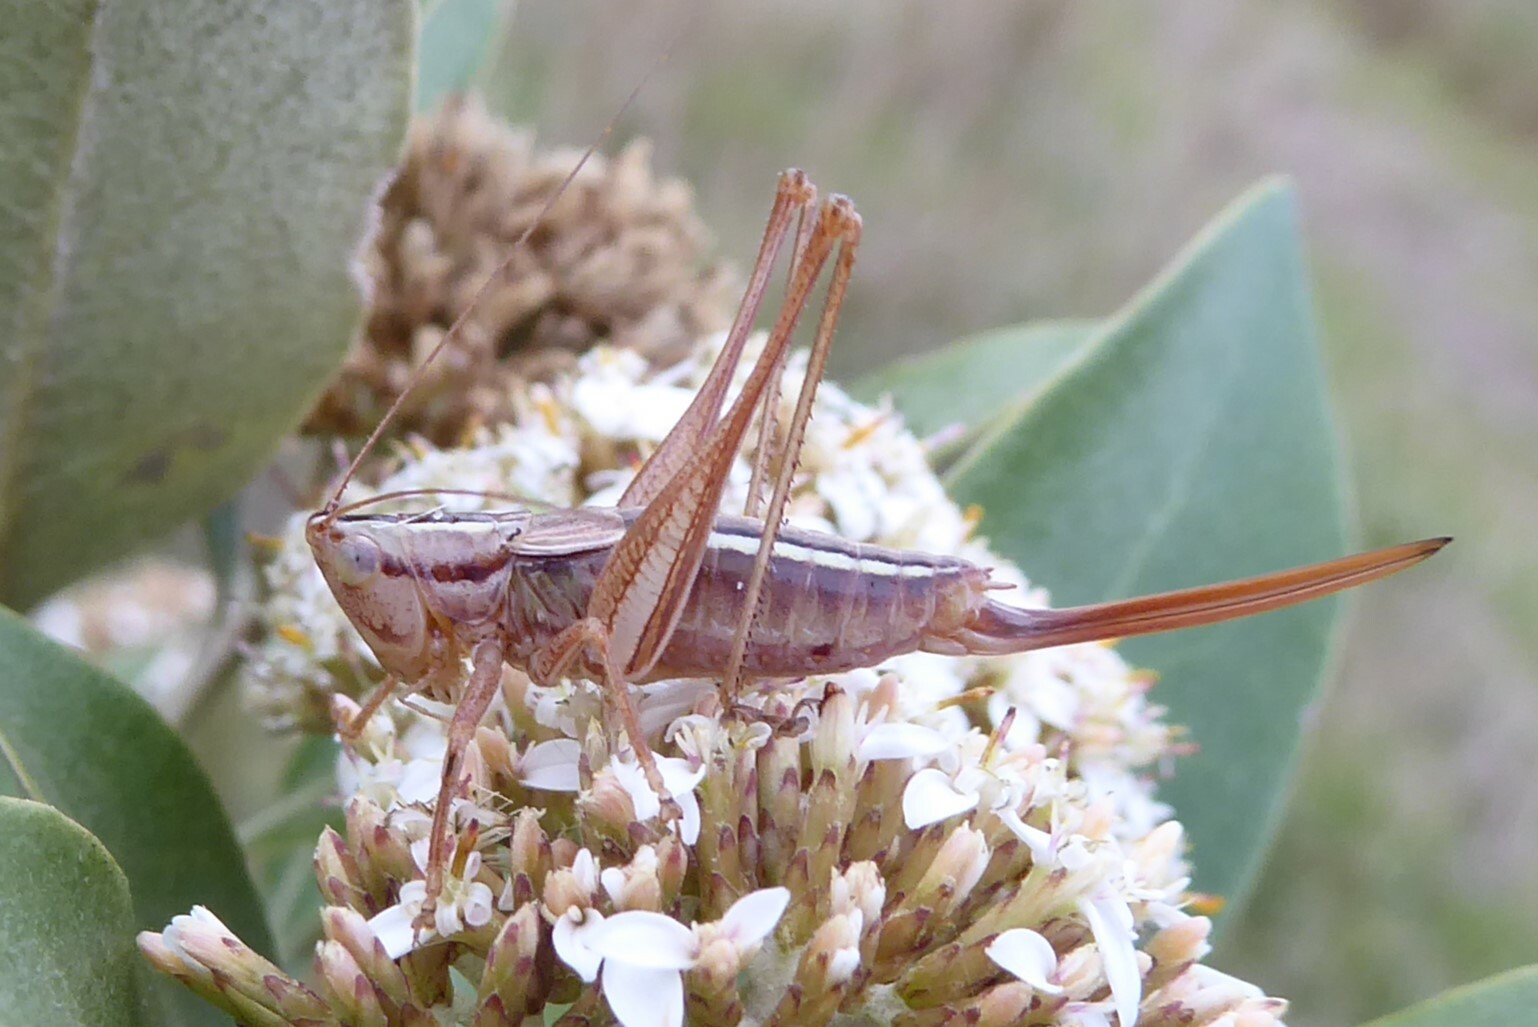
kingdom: Animalia
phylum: Arthropoda
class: Insecta
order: Orthoptera
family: Tettigoniidae
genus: Conocephalus
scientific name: Conocephalus bilineatus
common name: Small meadow katydid
